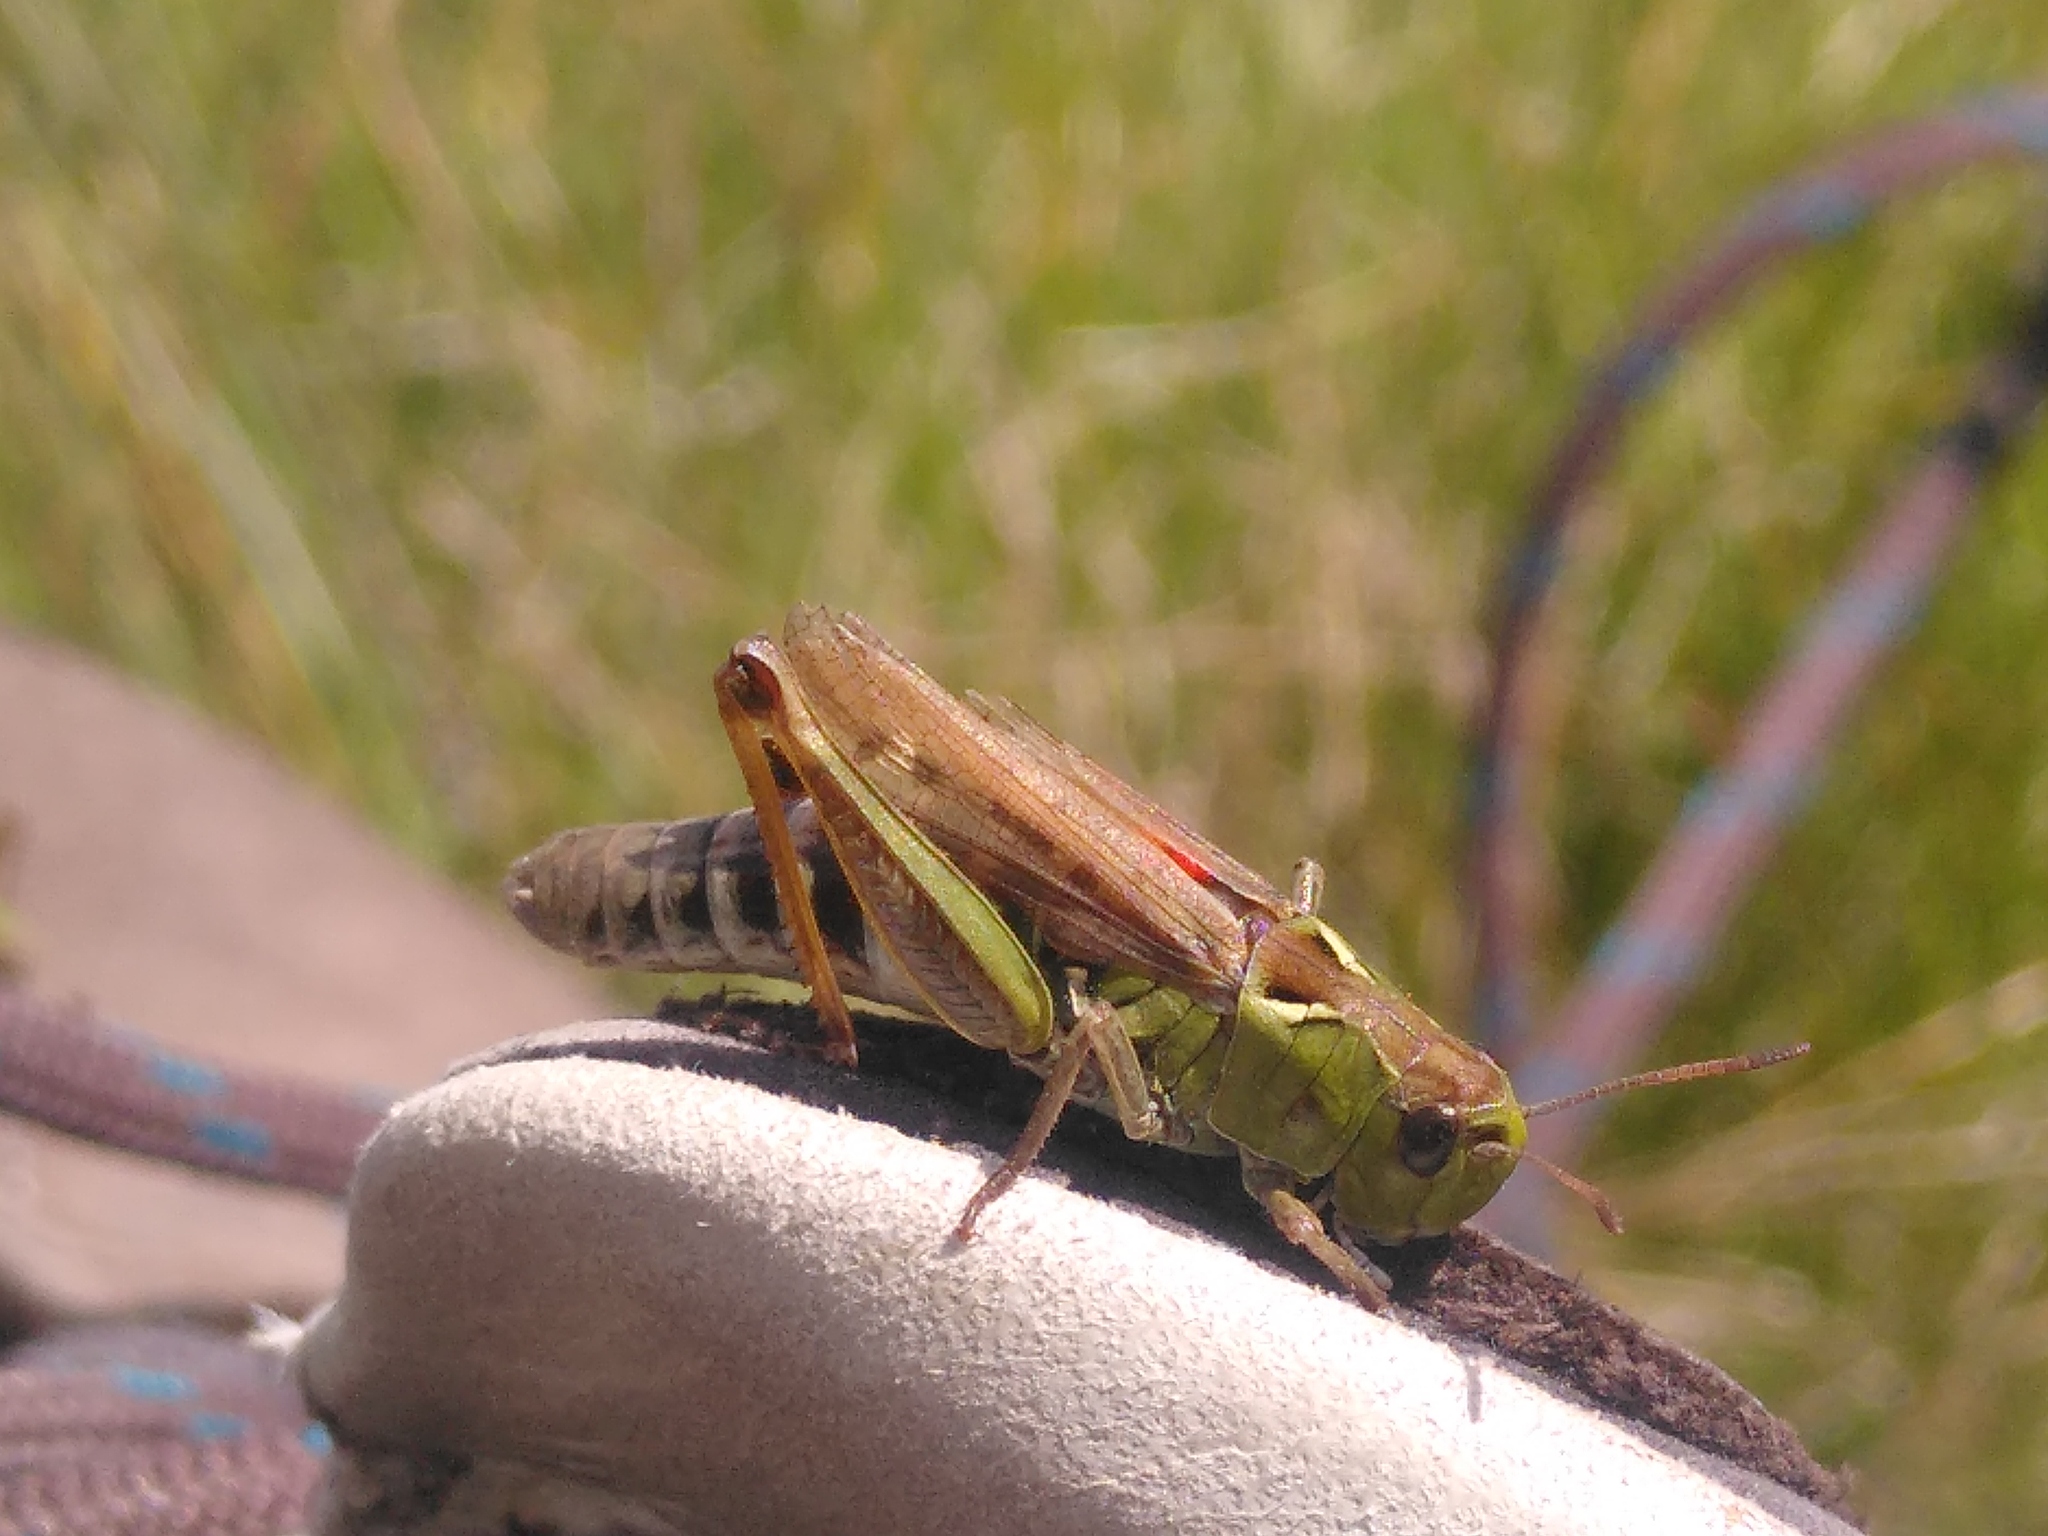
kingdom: Animalia
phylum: Arthropoda
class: Insecta
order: Orthoptera
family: Acrididae
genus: Gomphocerus
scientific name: Gomphocerus sibiricus
